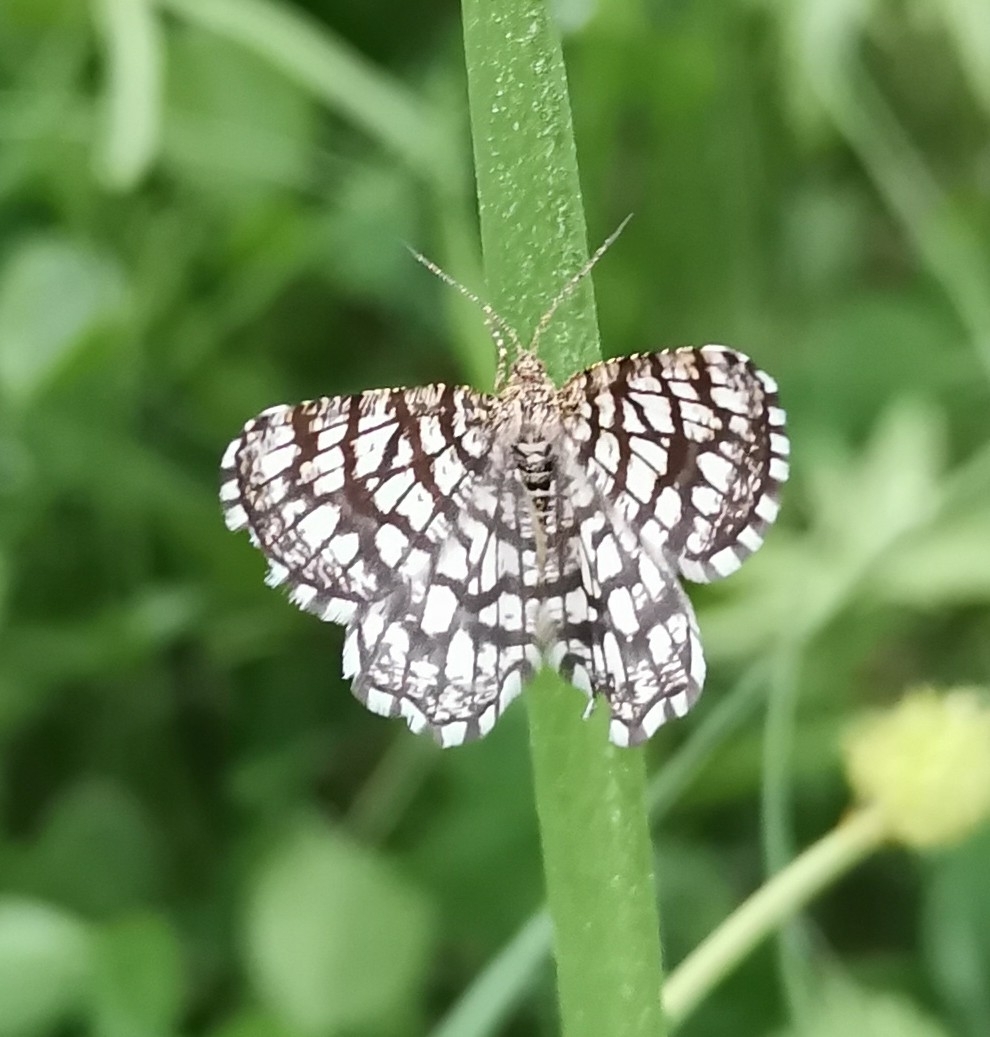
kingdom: Animalia
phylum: Arthropoda
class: Insecta
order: Lepidoptera
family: Geometridae
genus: Chiasmia
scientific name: Chiasmia clathrata
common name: Latticed heath
